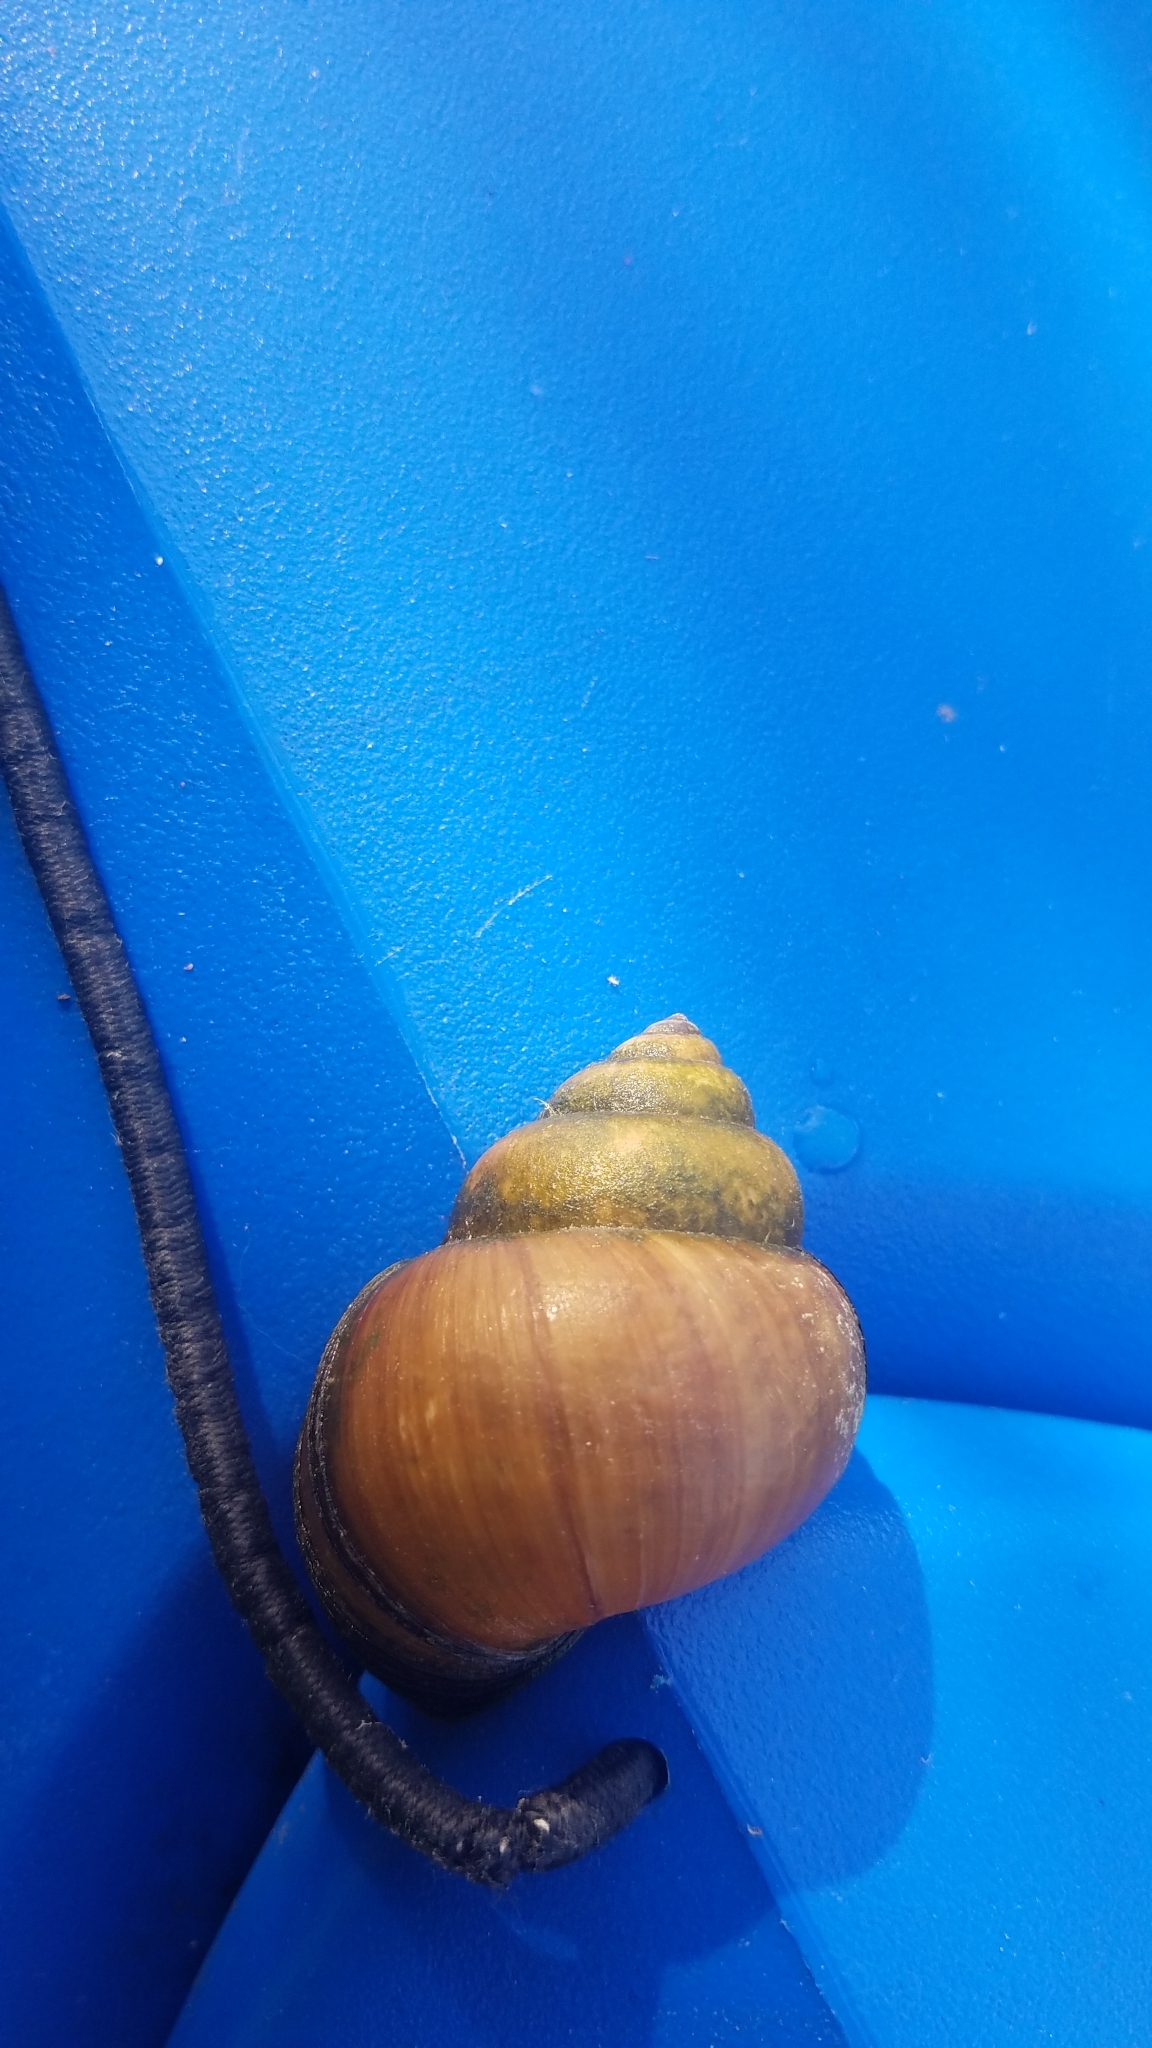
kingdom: Animalia
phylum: Mollusca
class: Gastropoda
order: Architaenioglossa
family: Viviparidae
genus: Cipangopaludina
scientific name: Cipangopaludina chinensis
